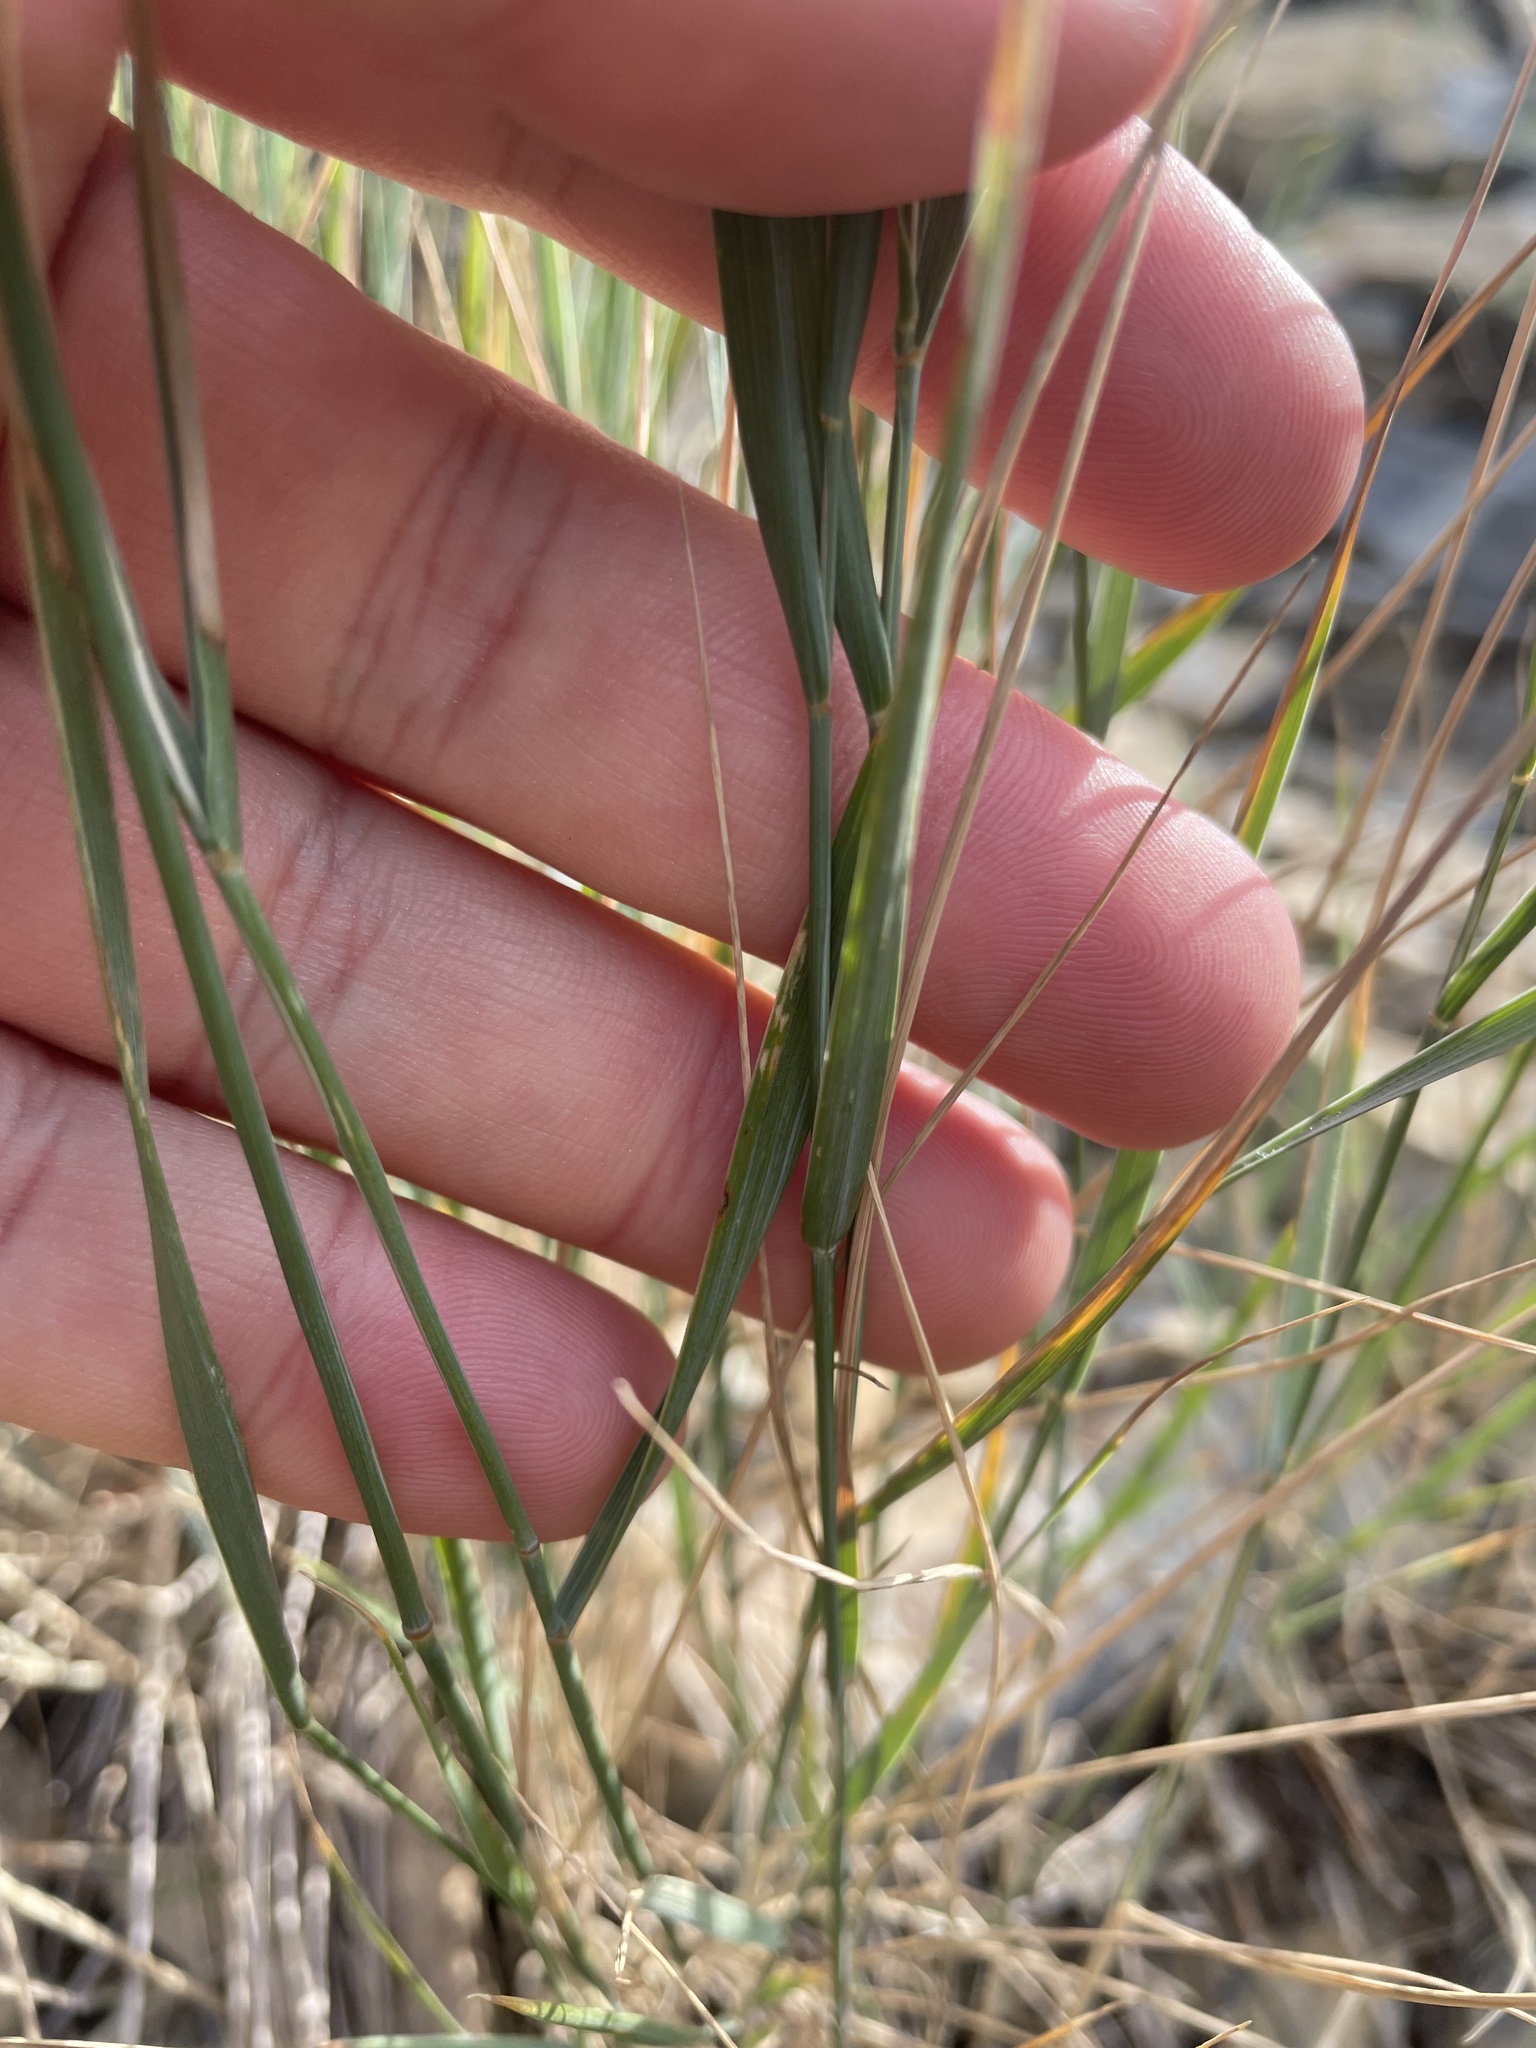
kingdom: Plantae
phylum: Tracheophyta
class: Liliopsida
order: Poales
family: Poaceae
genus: Pseudoroegneria
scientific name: Pseudoroegneria spicata
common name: Bluebunch wheatgrass
